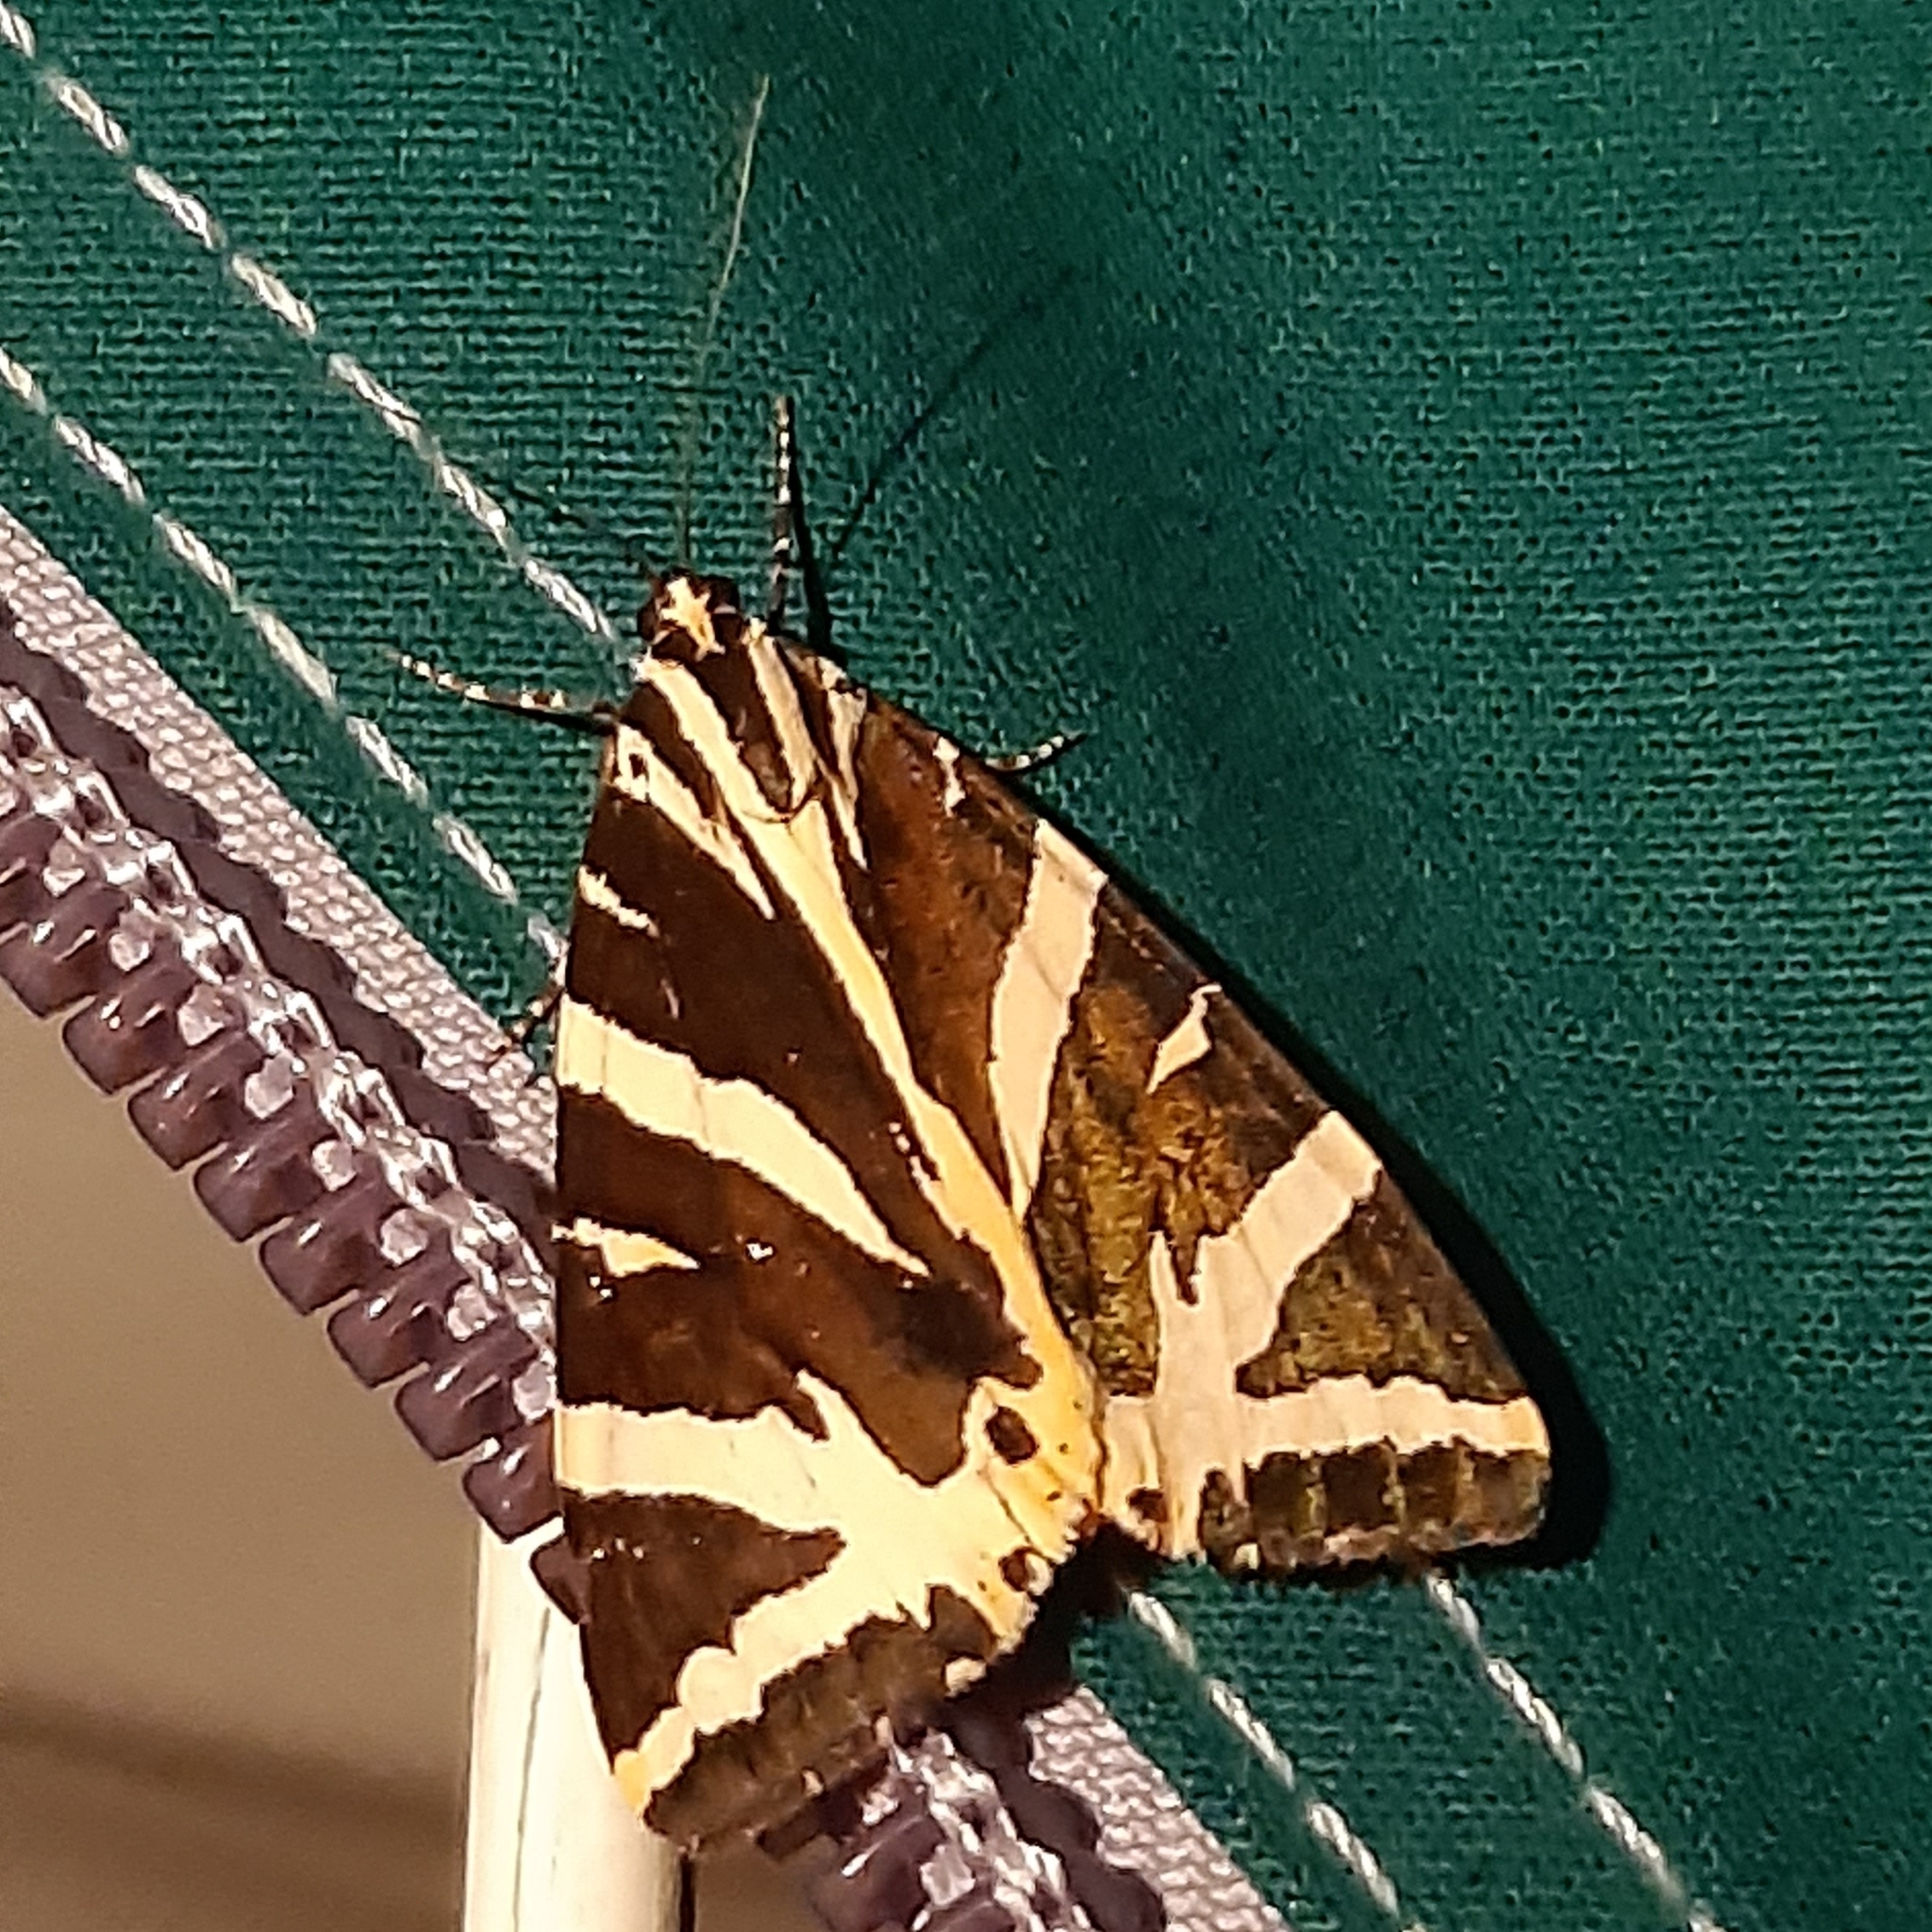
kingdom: Animalia
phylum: Arthropoda
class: Insecta
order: Lepidoptera
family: Erebidae
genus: Euplagia
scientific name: Euplagia quadripunctaria
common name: Jersey tiger
